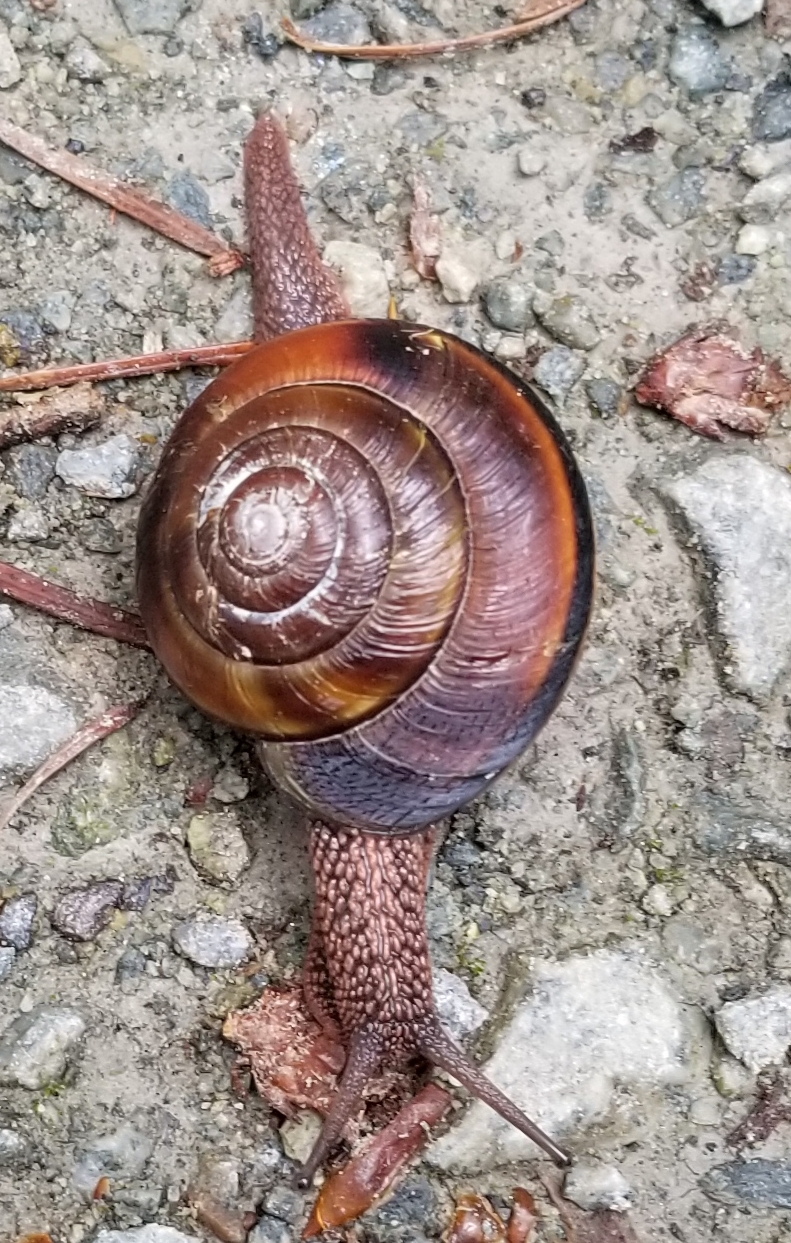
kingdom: Animalia
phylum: Mollusca
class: Gastropoda
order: Stylommatophora
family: Xanthonychidae
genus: Monadenia
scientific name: Monadenia fidelis
